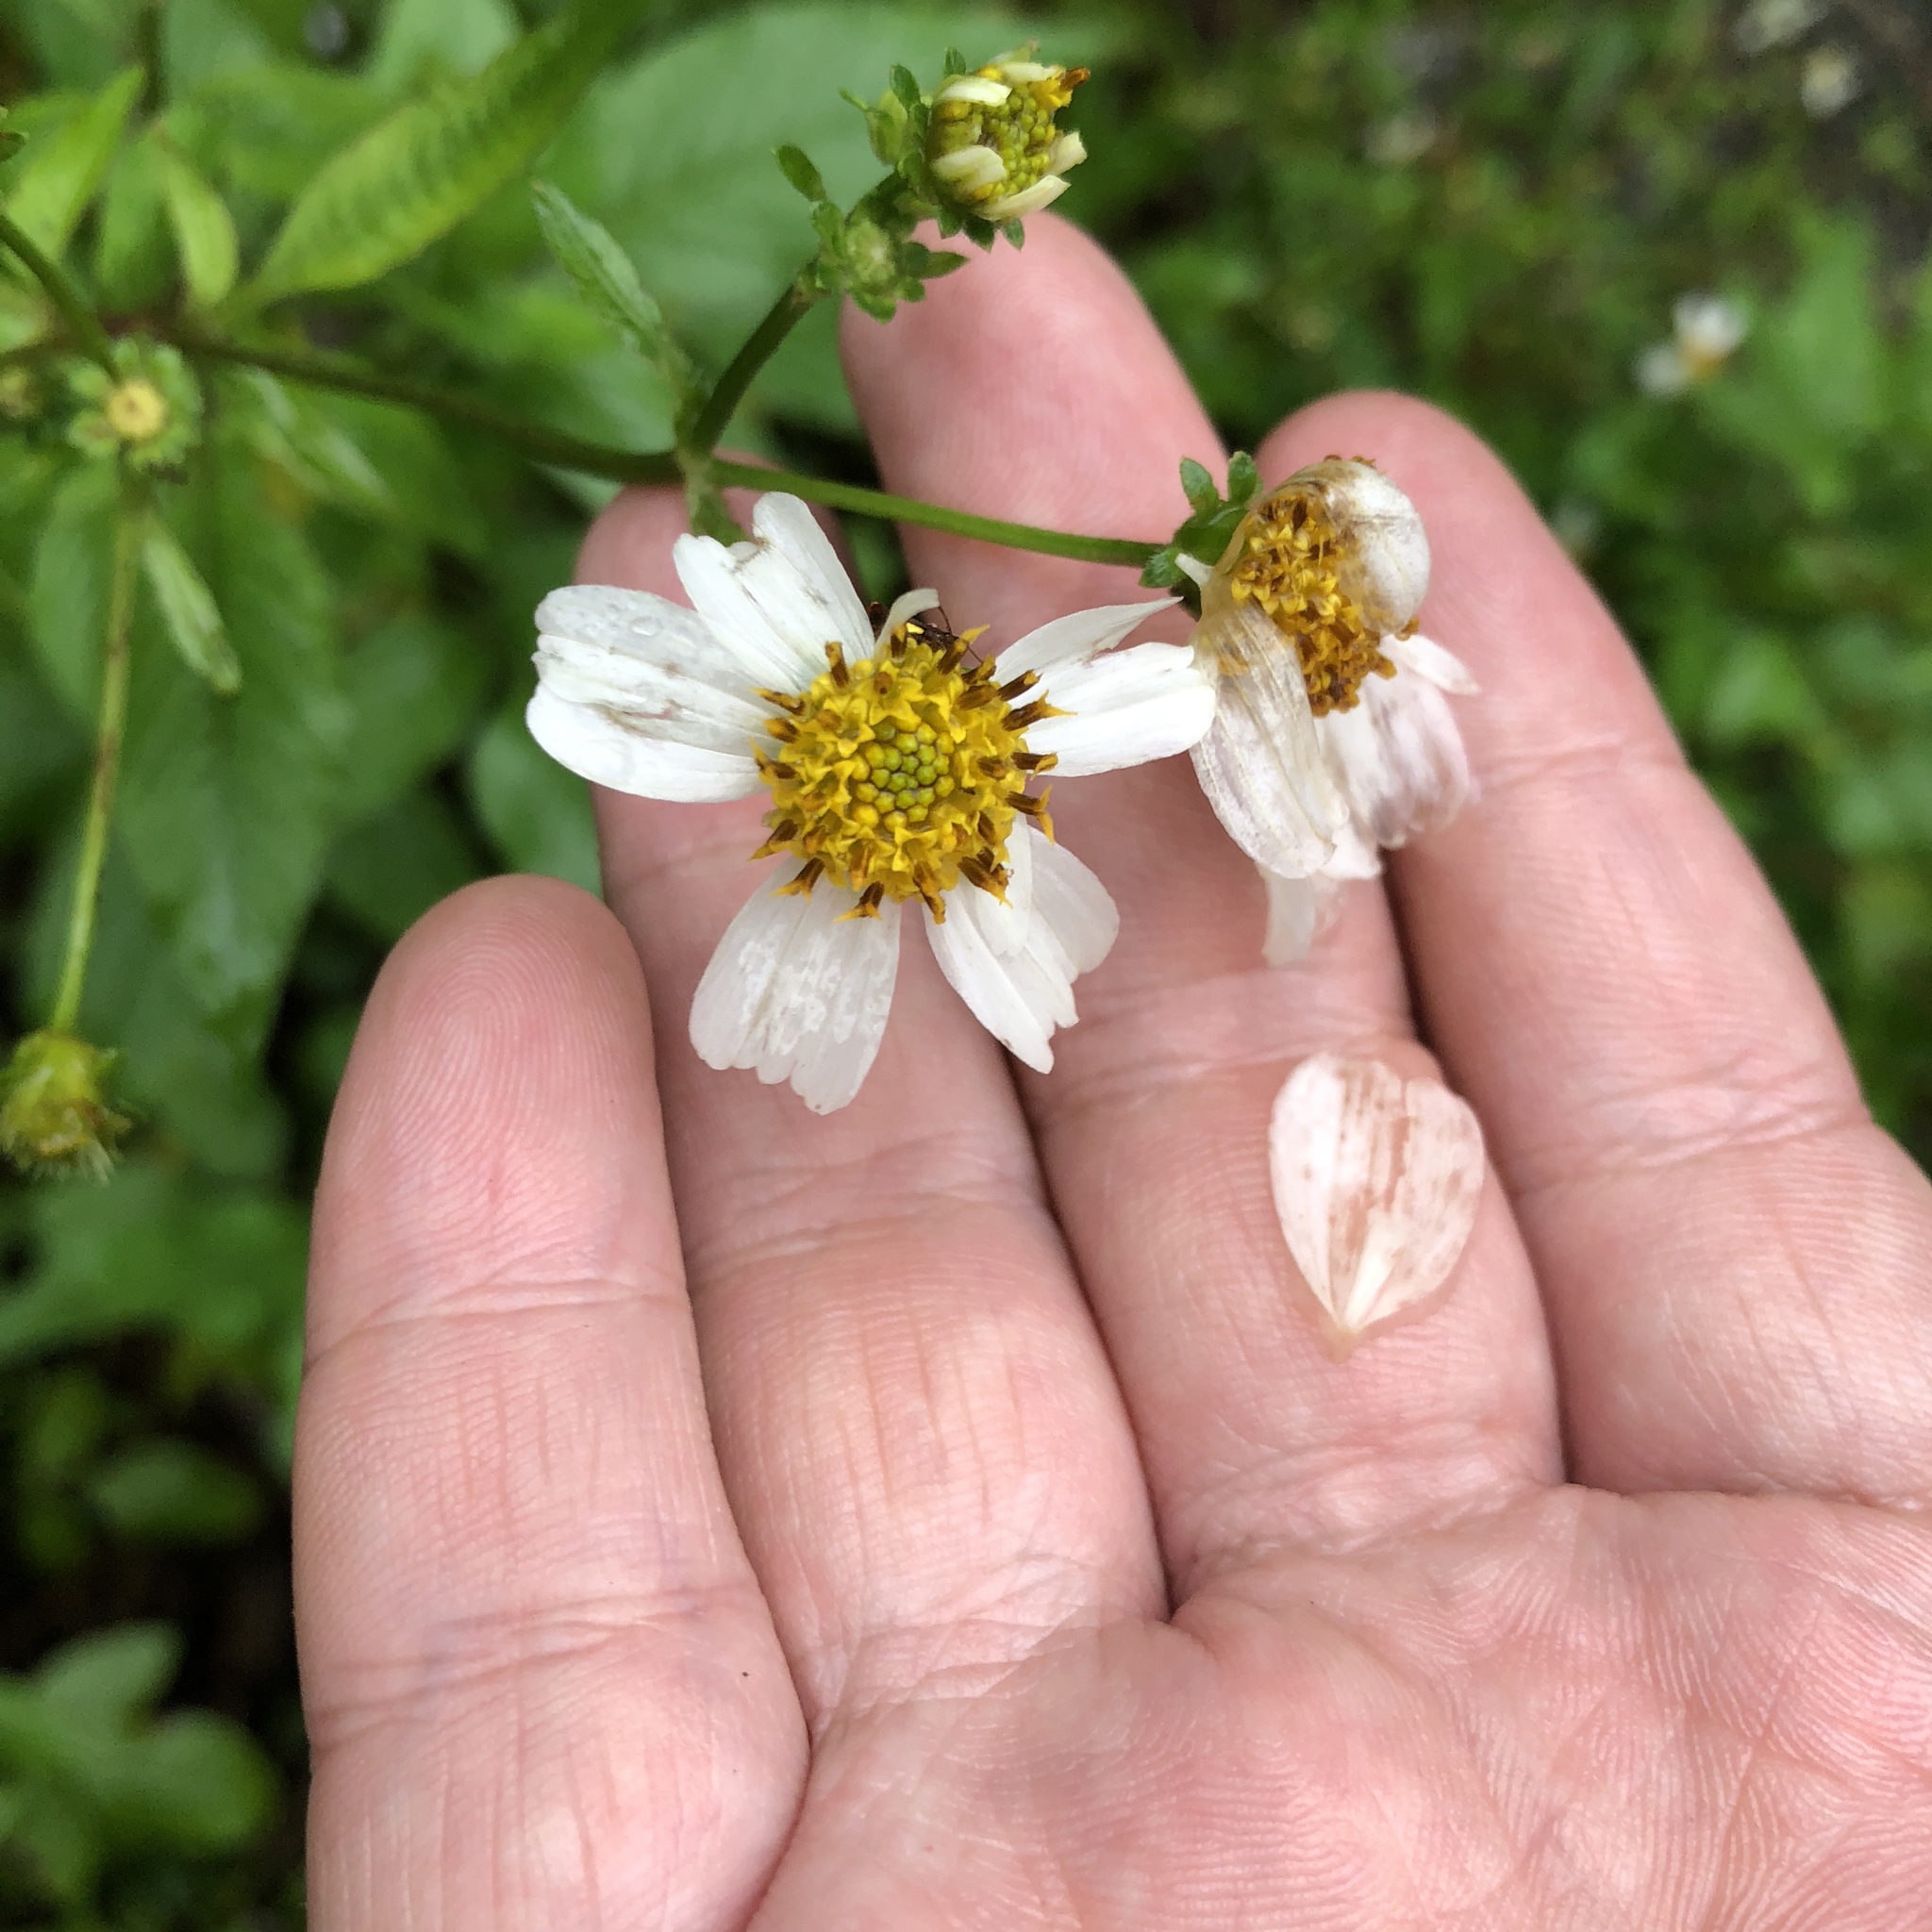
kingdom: Plantae
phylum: Tracheophyta
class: Magnoliopsida
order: Asterales
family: Asteraceae
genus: Bidens
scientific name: Bidens alba
